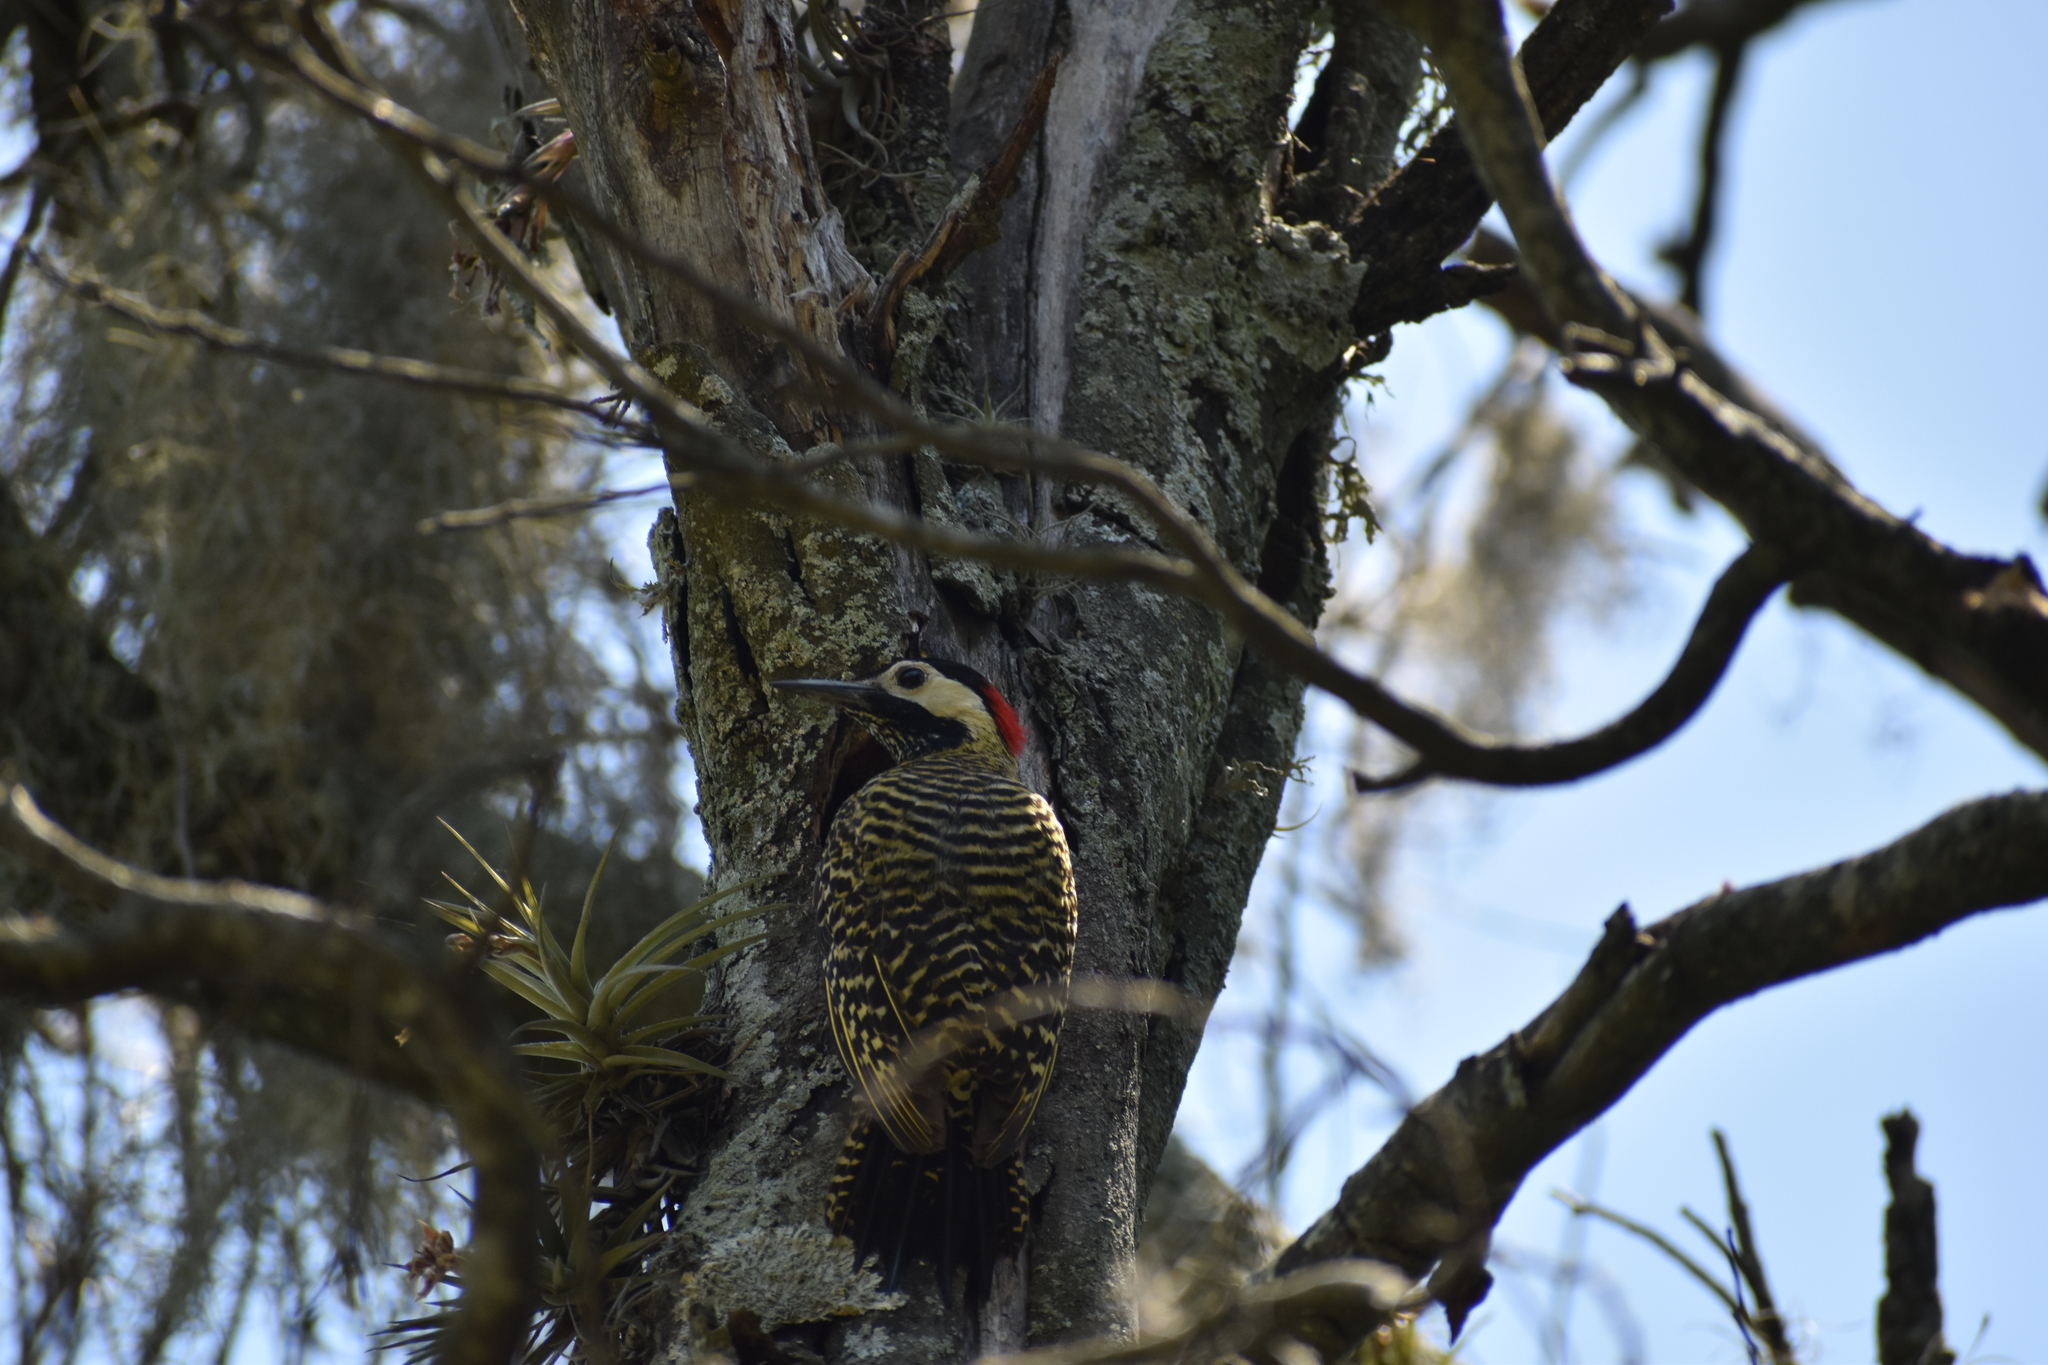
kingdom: Animalia
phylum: Chordata
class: Aves
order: Piciformes
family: Picidae
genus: Colaptes
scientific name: Colaptes melanochloros
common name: Green-barred woodpecker
